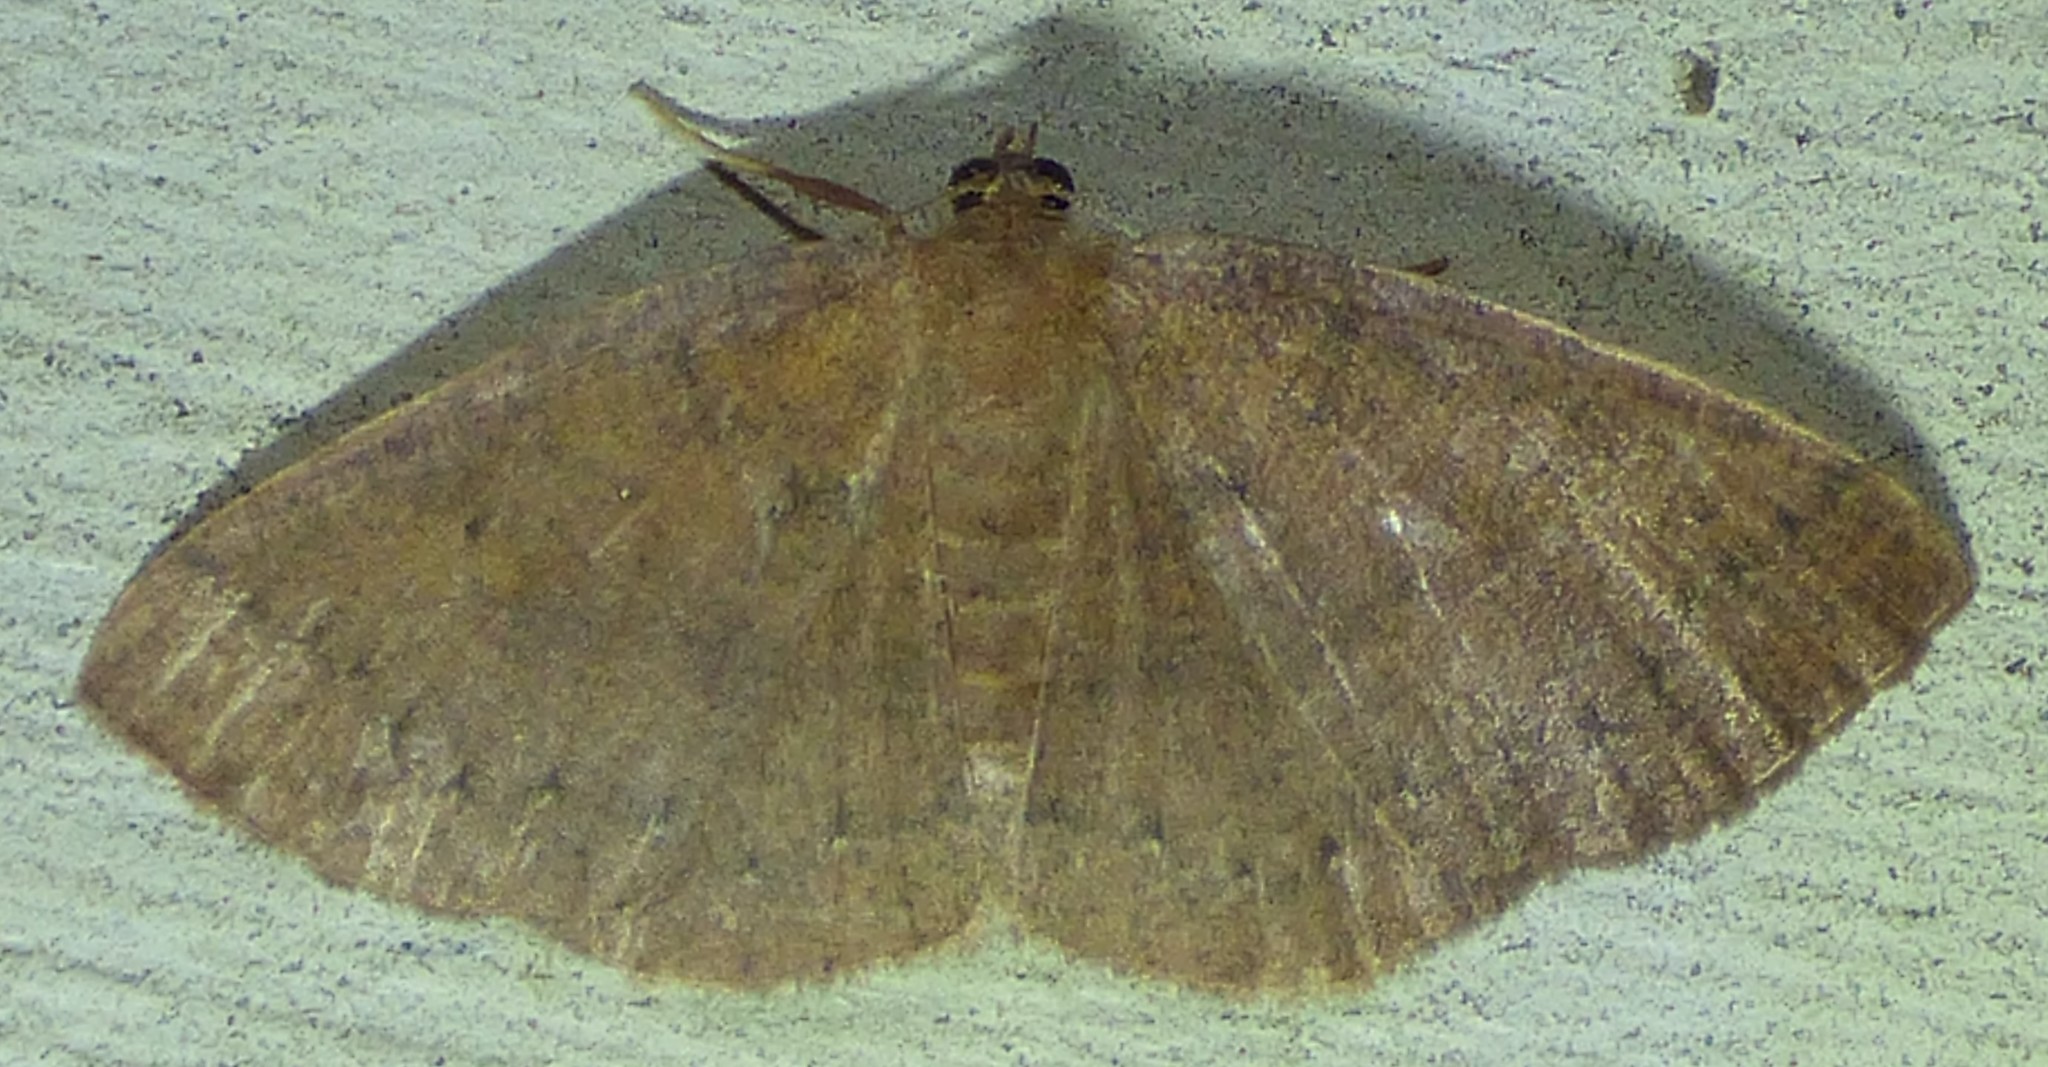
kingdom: Animalia
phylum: Arthropoda
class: Insecta
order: Lepidoptera
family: Geometridae
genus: Ilexia
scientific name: Ilexia intractata
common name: Black-dotted ruddy moth
